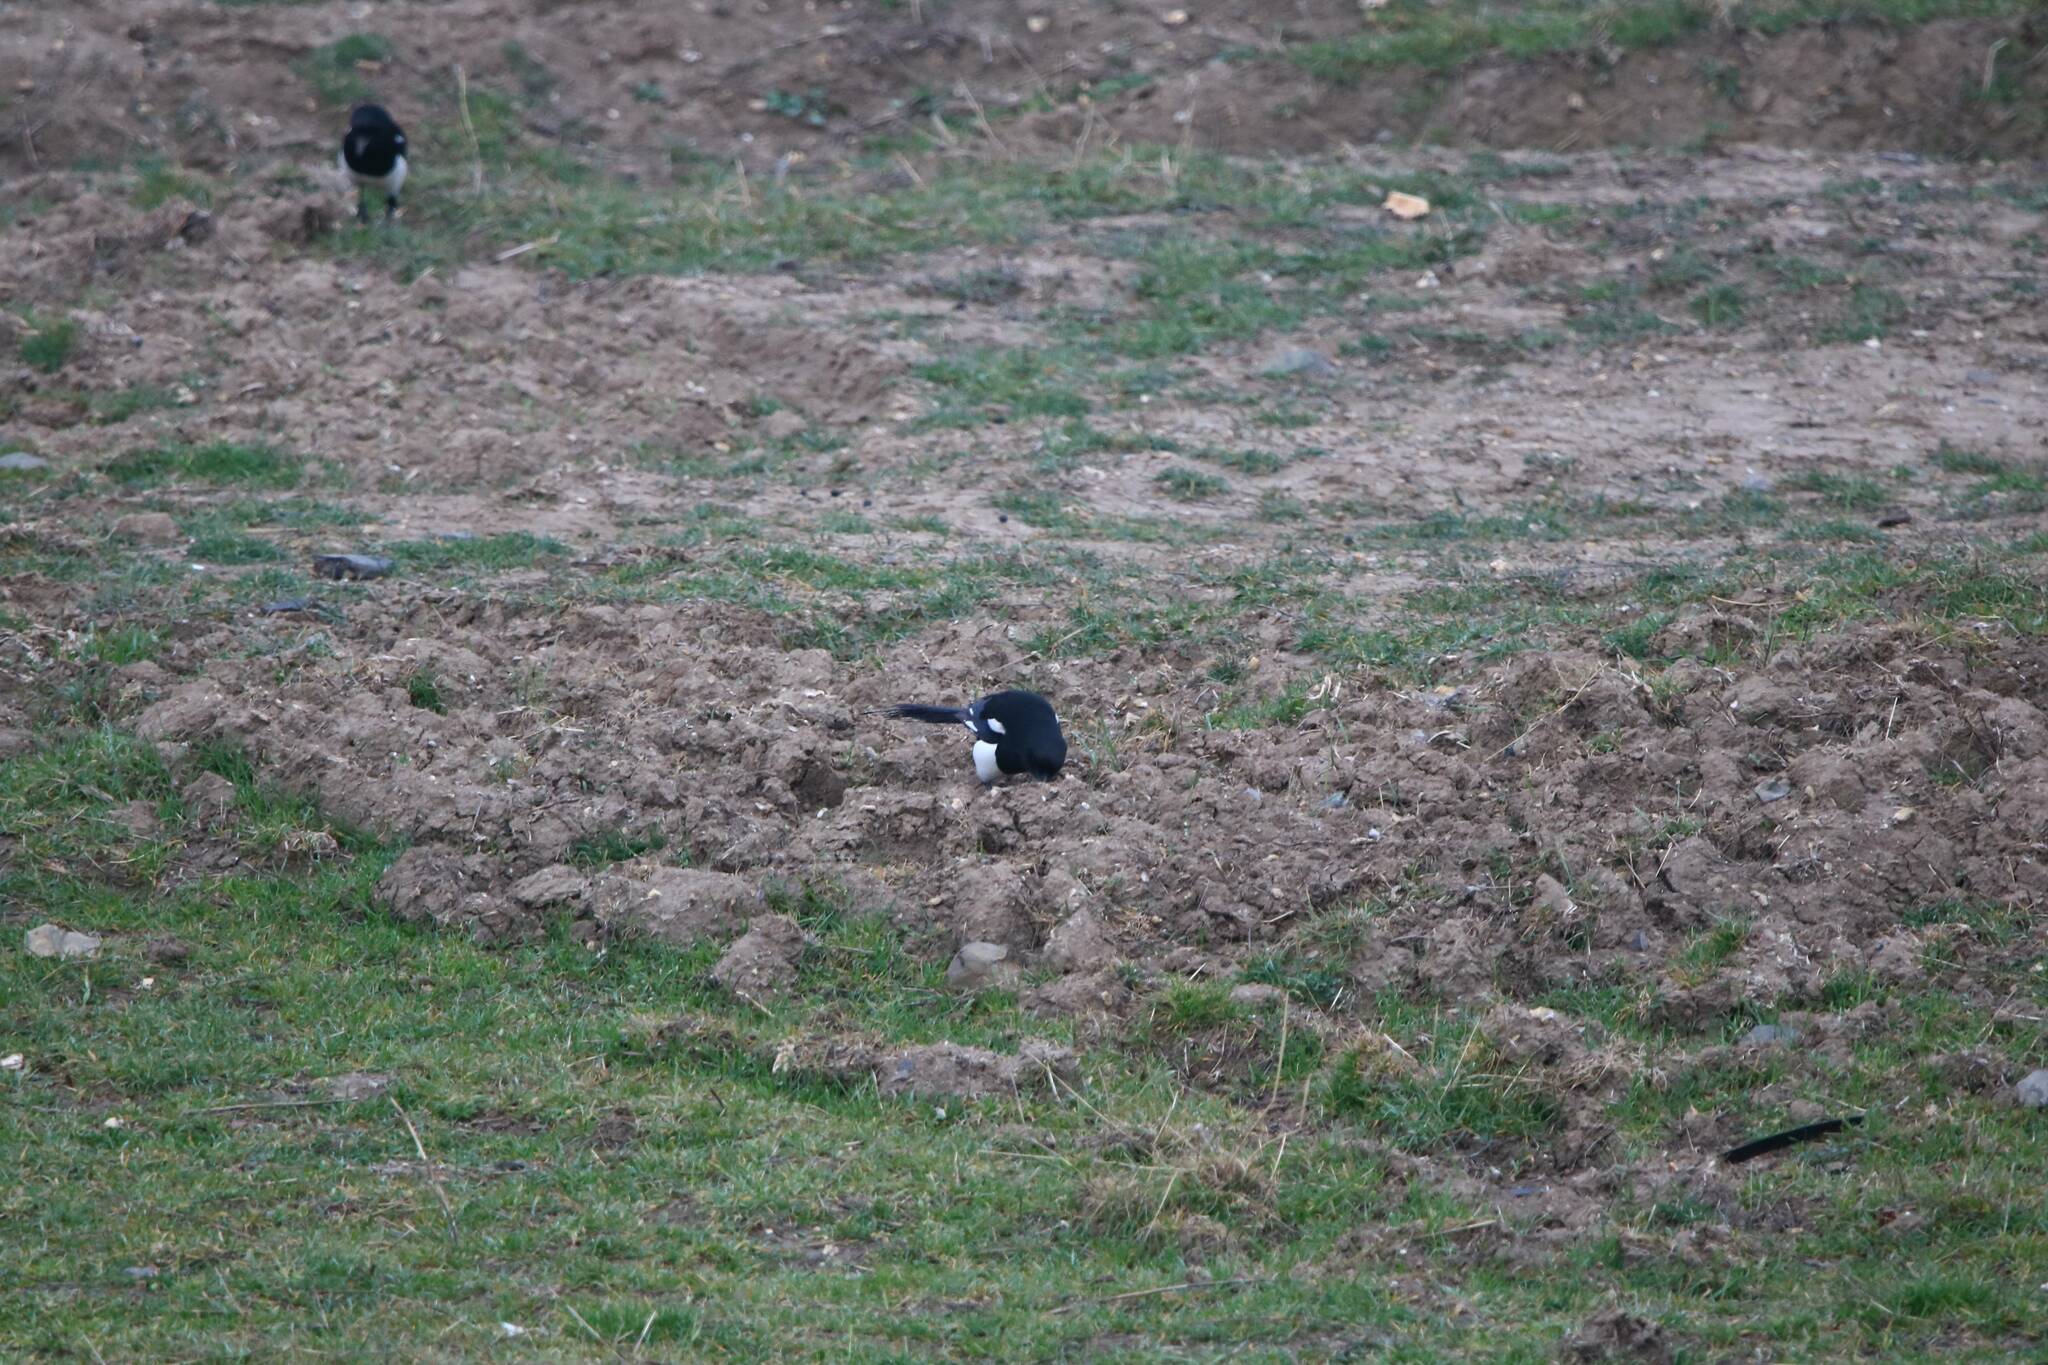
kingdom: Animalia
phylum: Chordata
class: Aves
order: Passeriformes
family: Corvidae
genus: Pica
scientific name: Pica mauritanica
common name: Maghreb magpie
